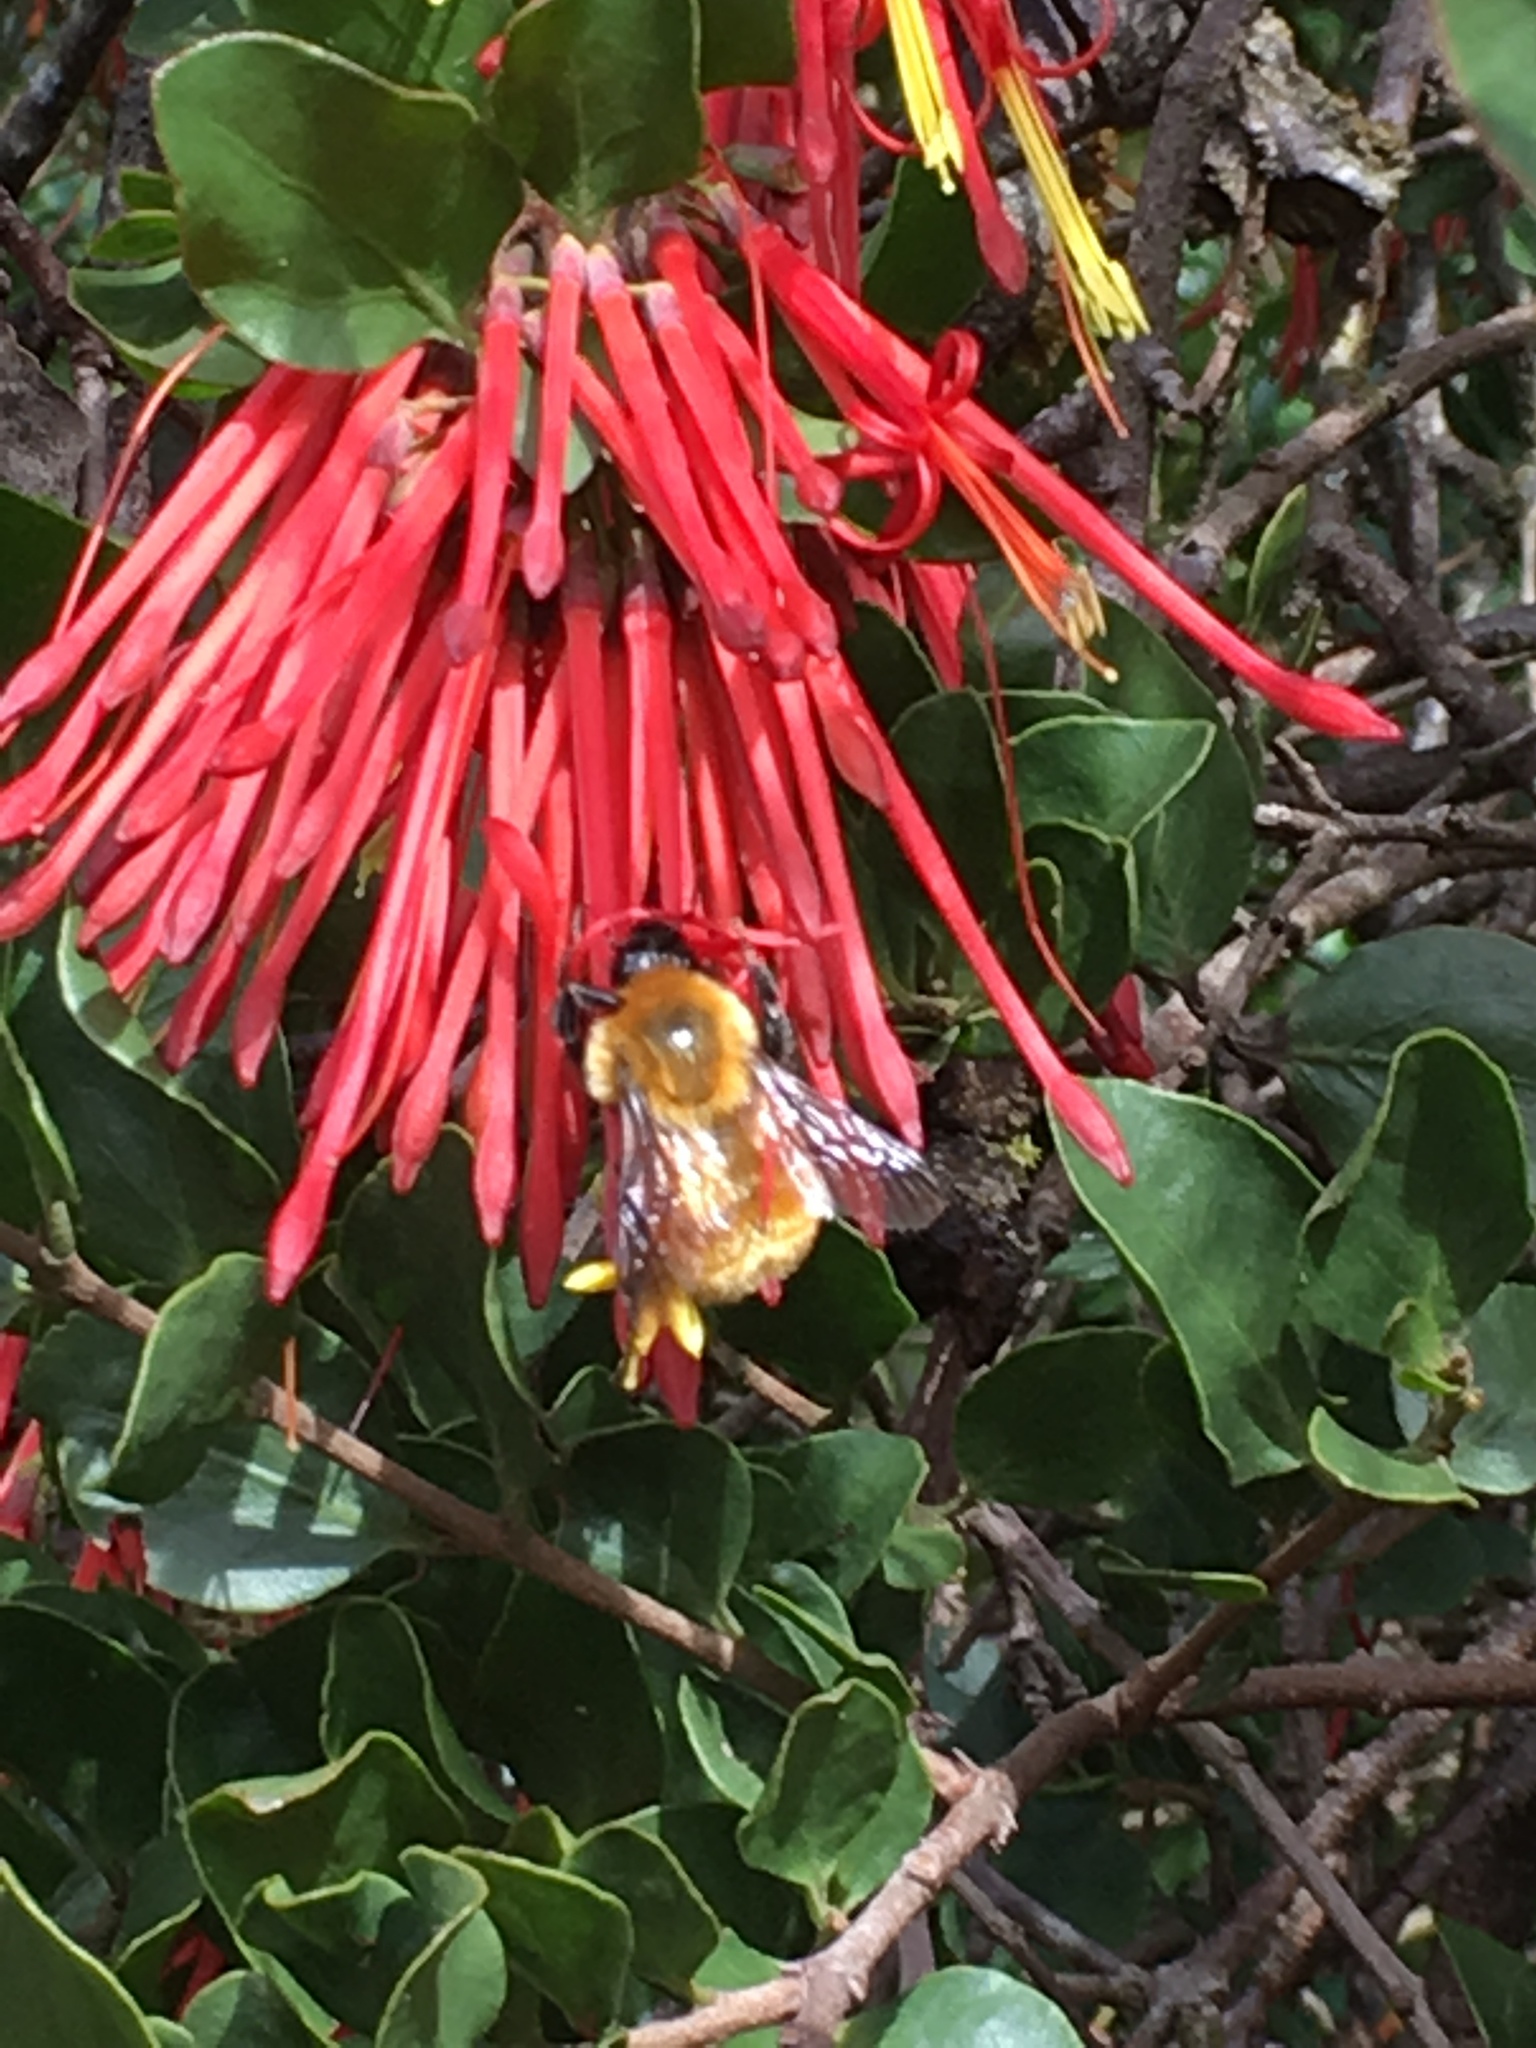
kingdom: Animalia
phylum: Arthropoda
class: Insecta
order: Hymenoptera
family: Apidae
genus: Bombus
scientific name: Bombus dahlbomii
